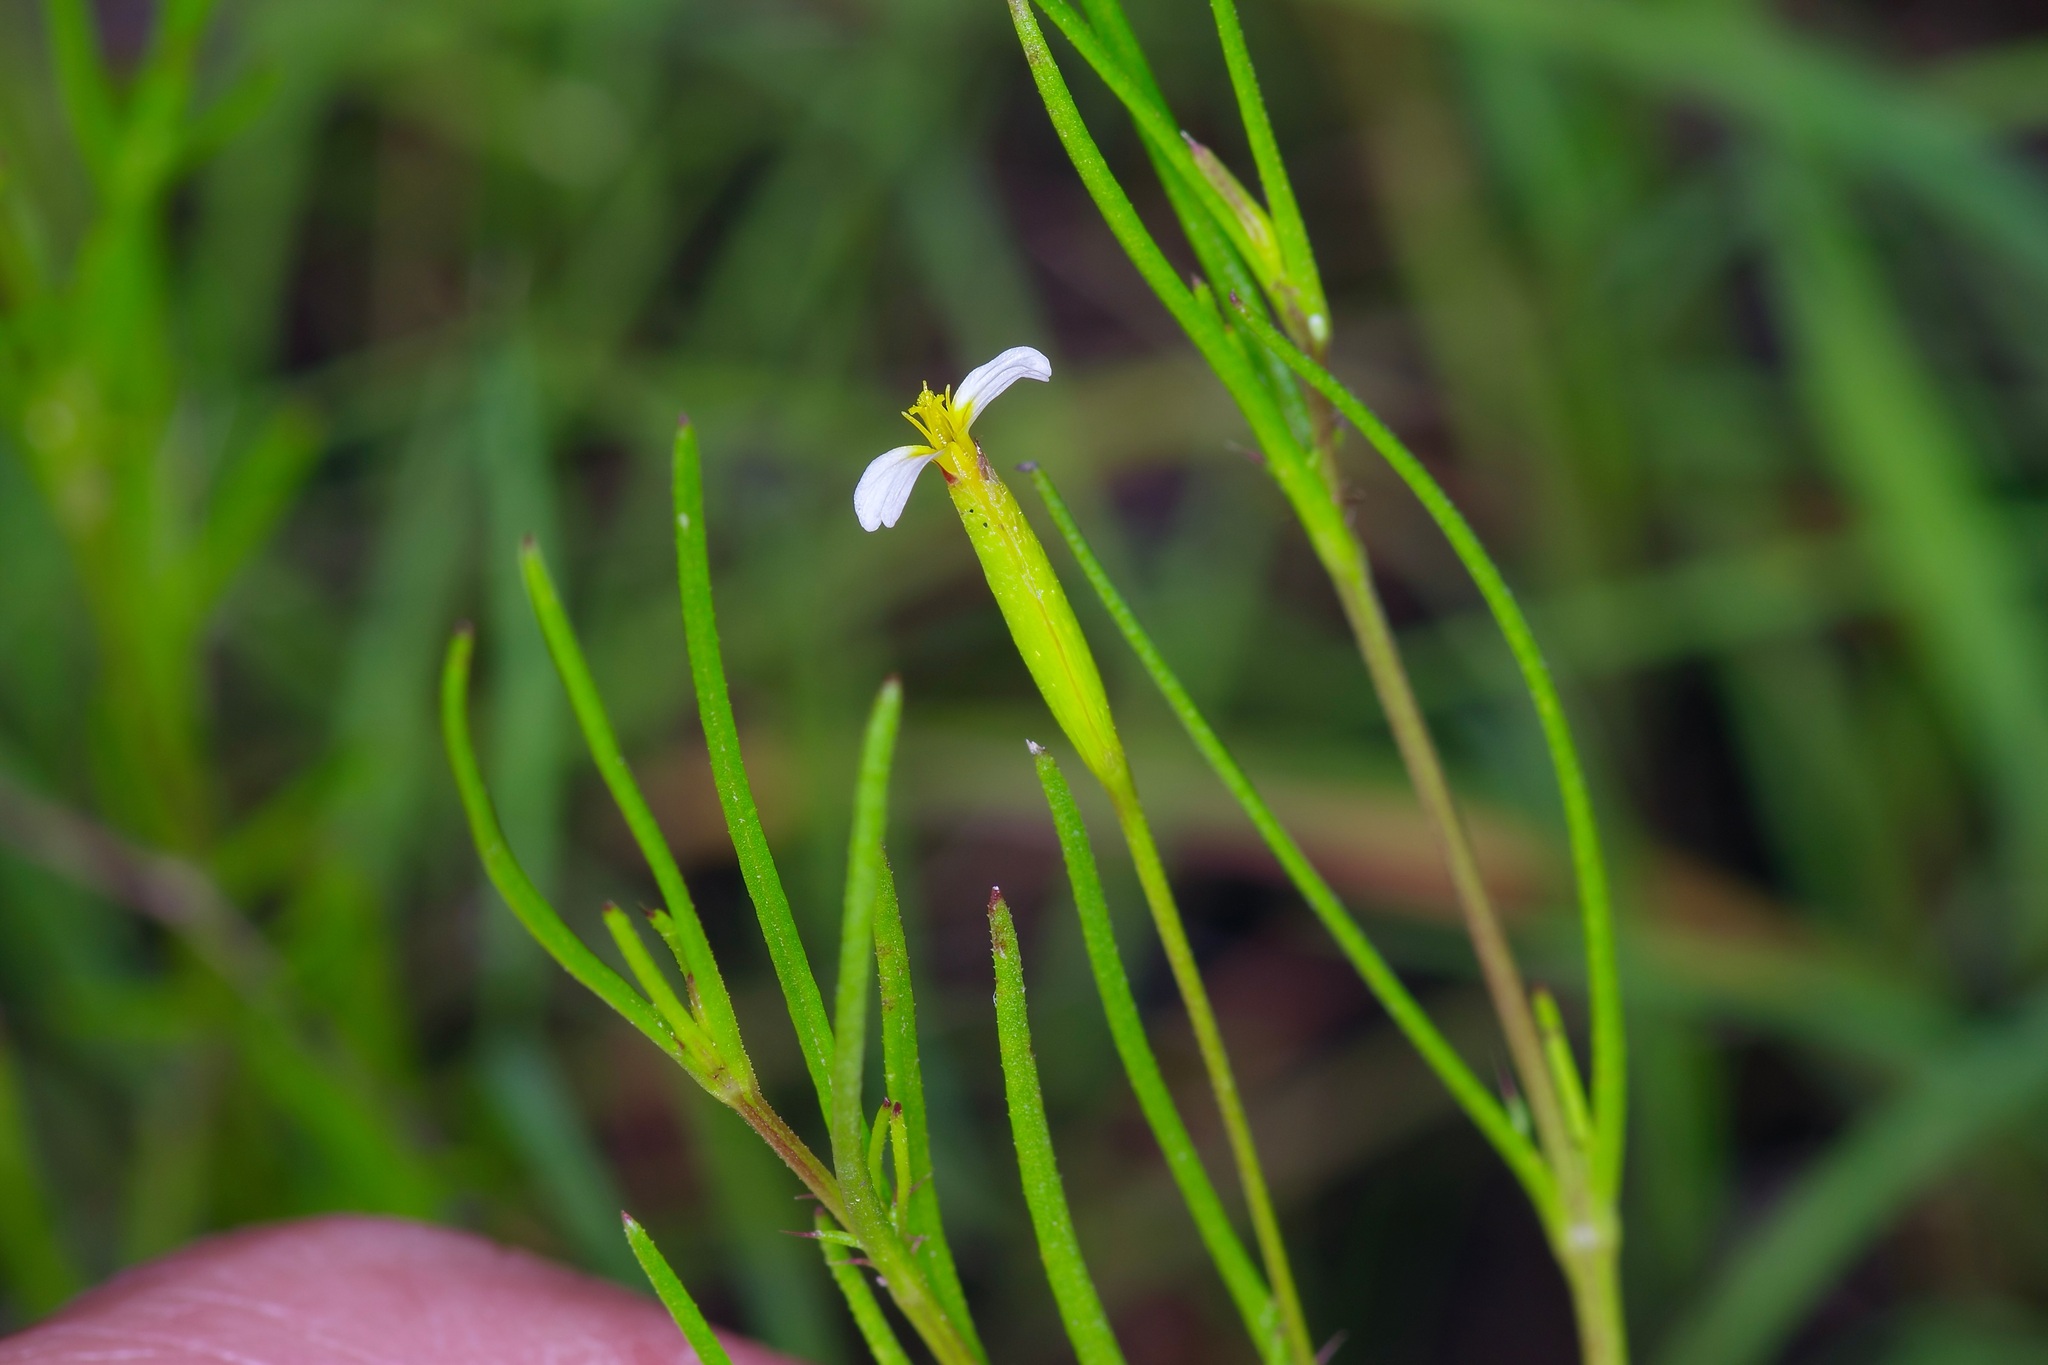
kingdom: Plantae
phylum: Tracheophyta
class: Magnoliopsida
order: Asterales
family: Asteraceae
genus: Tagetes
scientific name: Tagetes micrantha
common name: Licorice marigold
